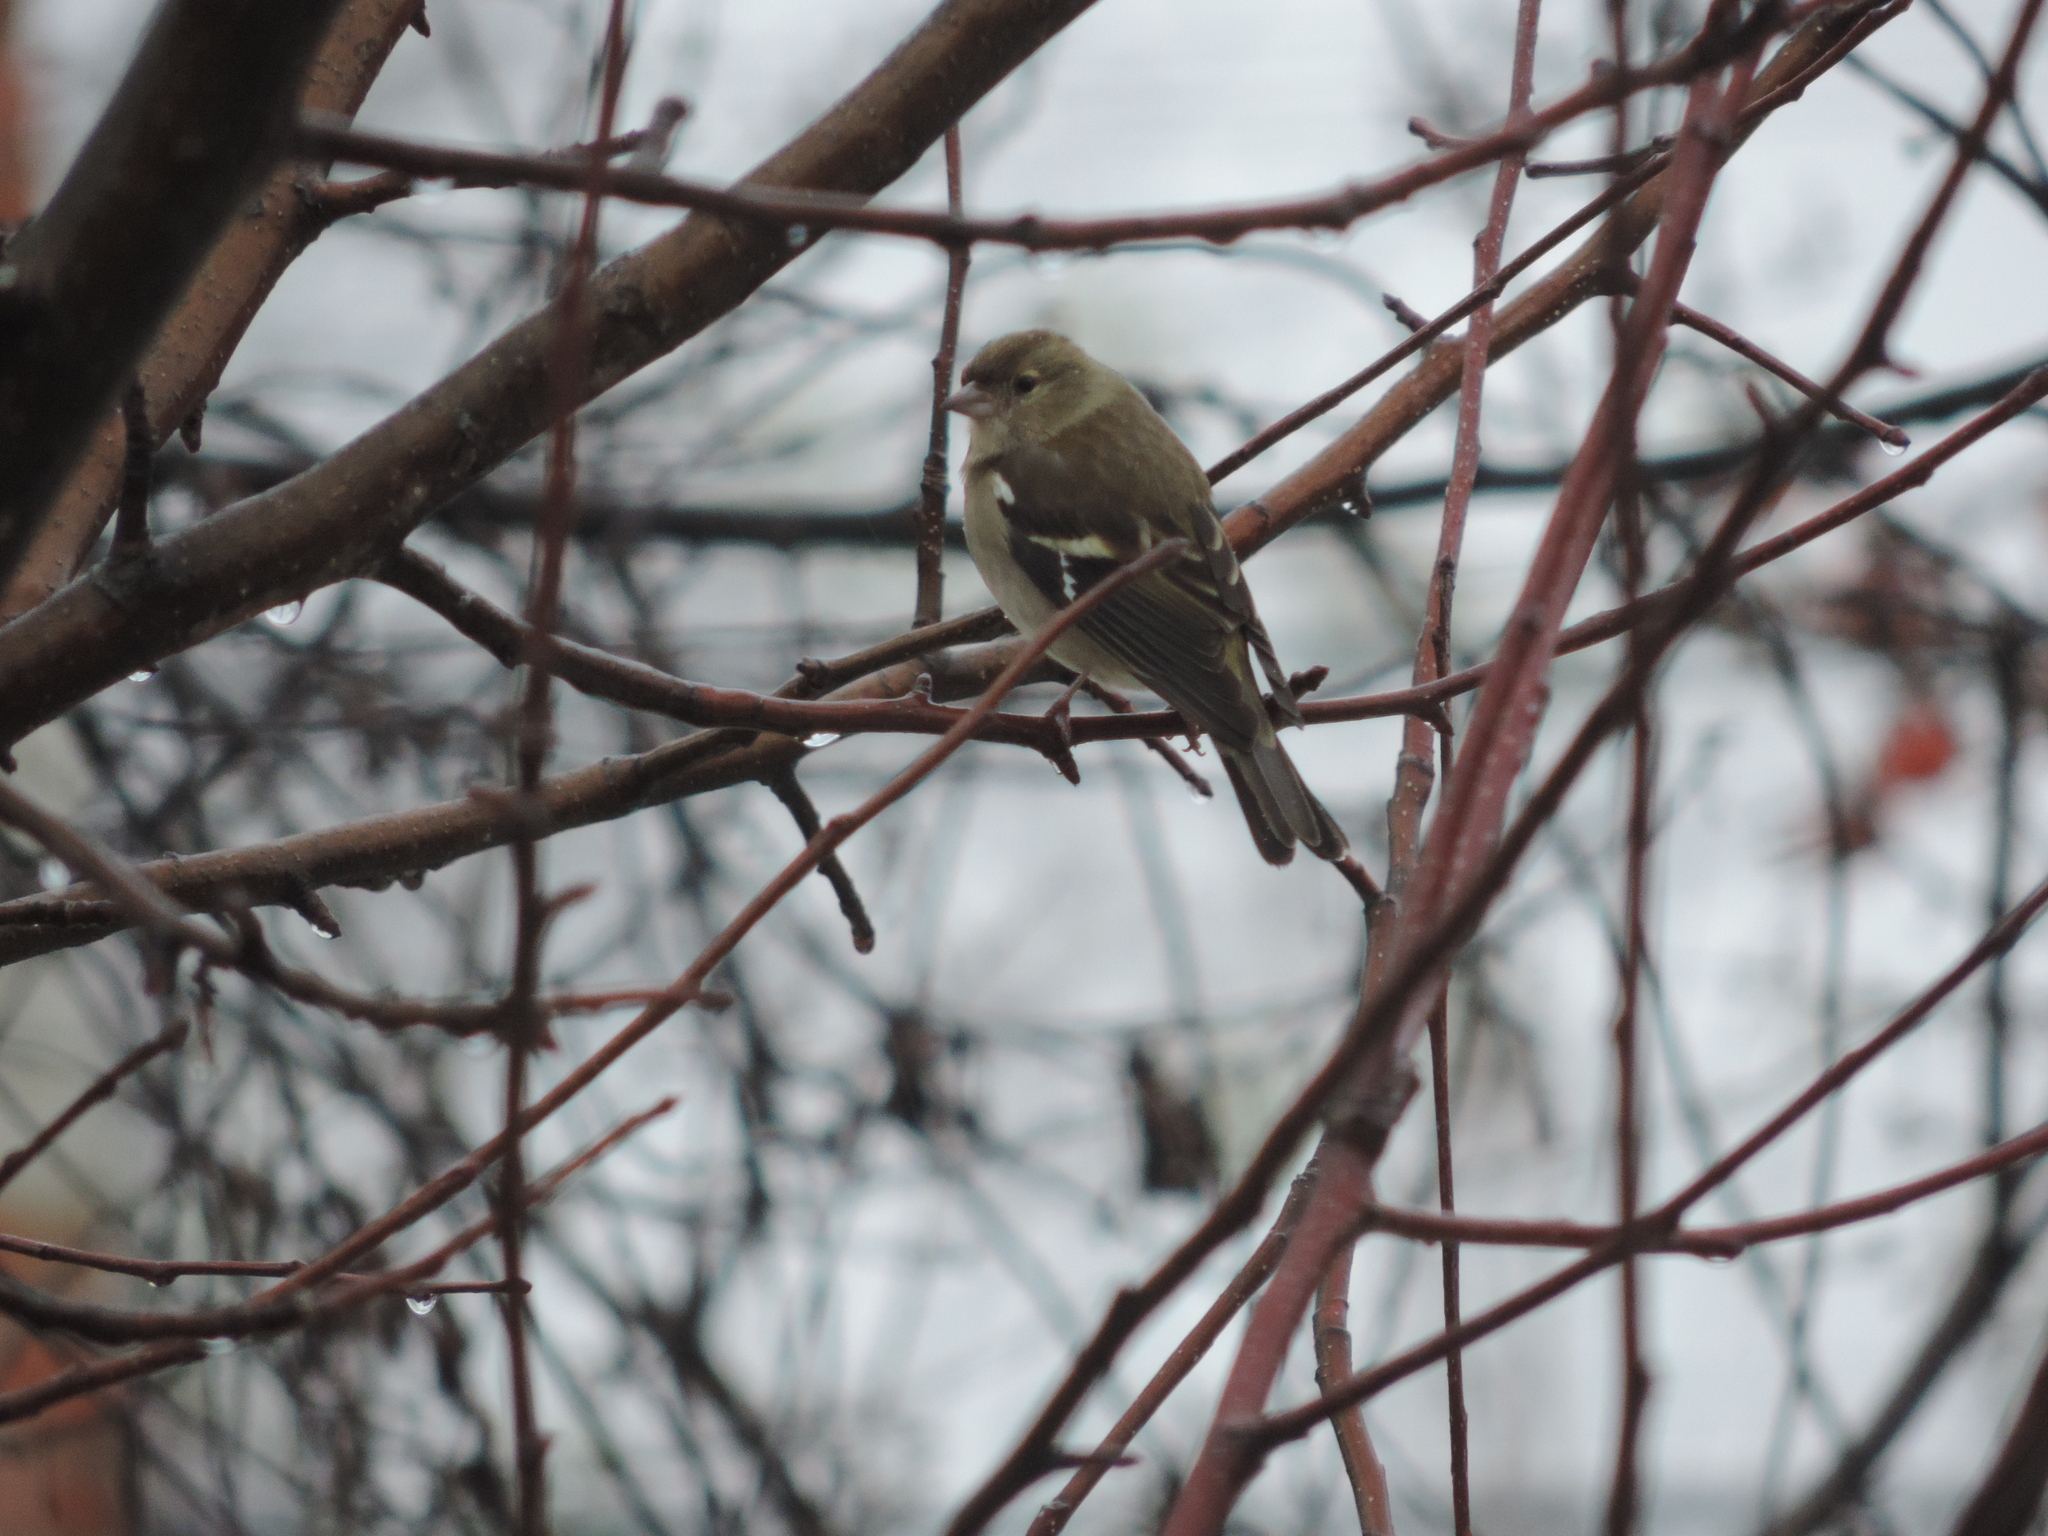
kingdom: Animalia
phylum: Chordata
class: Aves
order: Passeriformes
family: Fringillidae
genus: Fringilla
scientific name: Fringilla coelebs
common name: Common chaffinch
